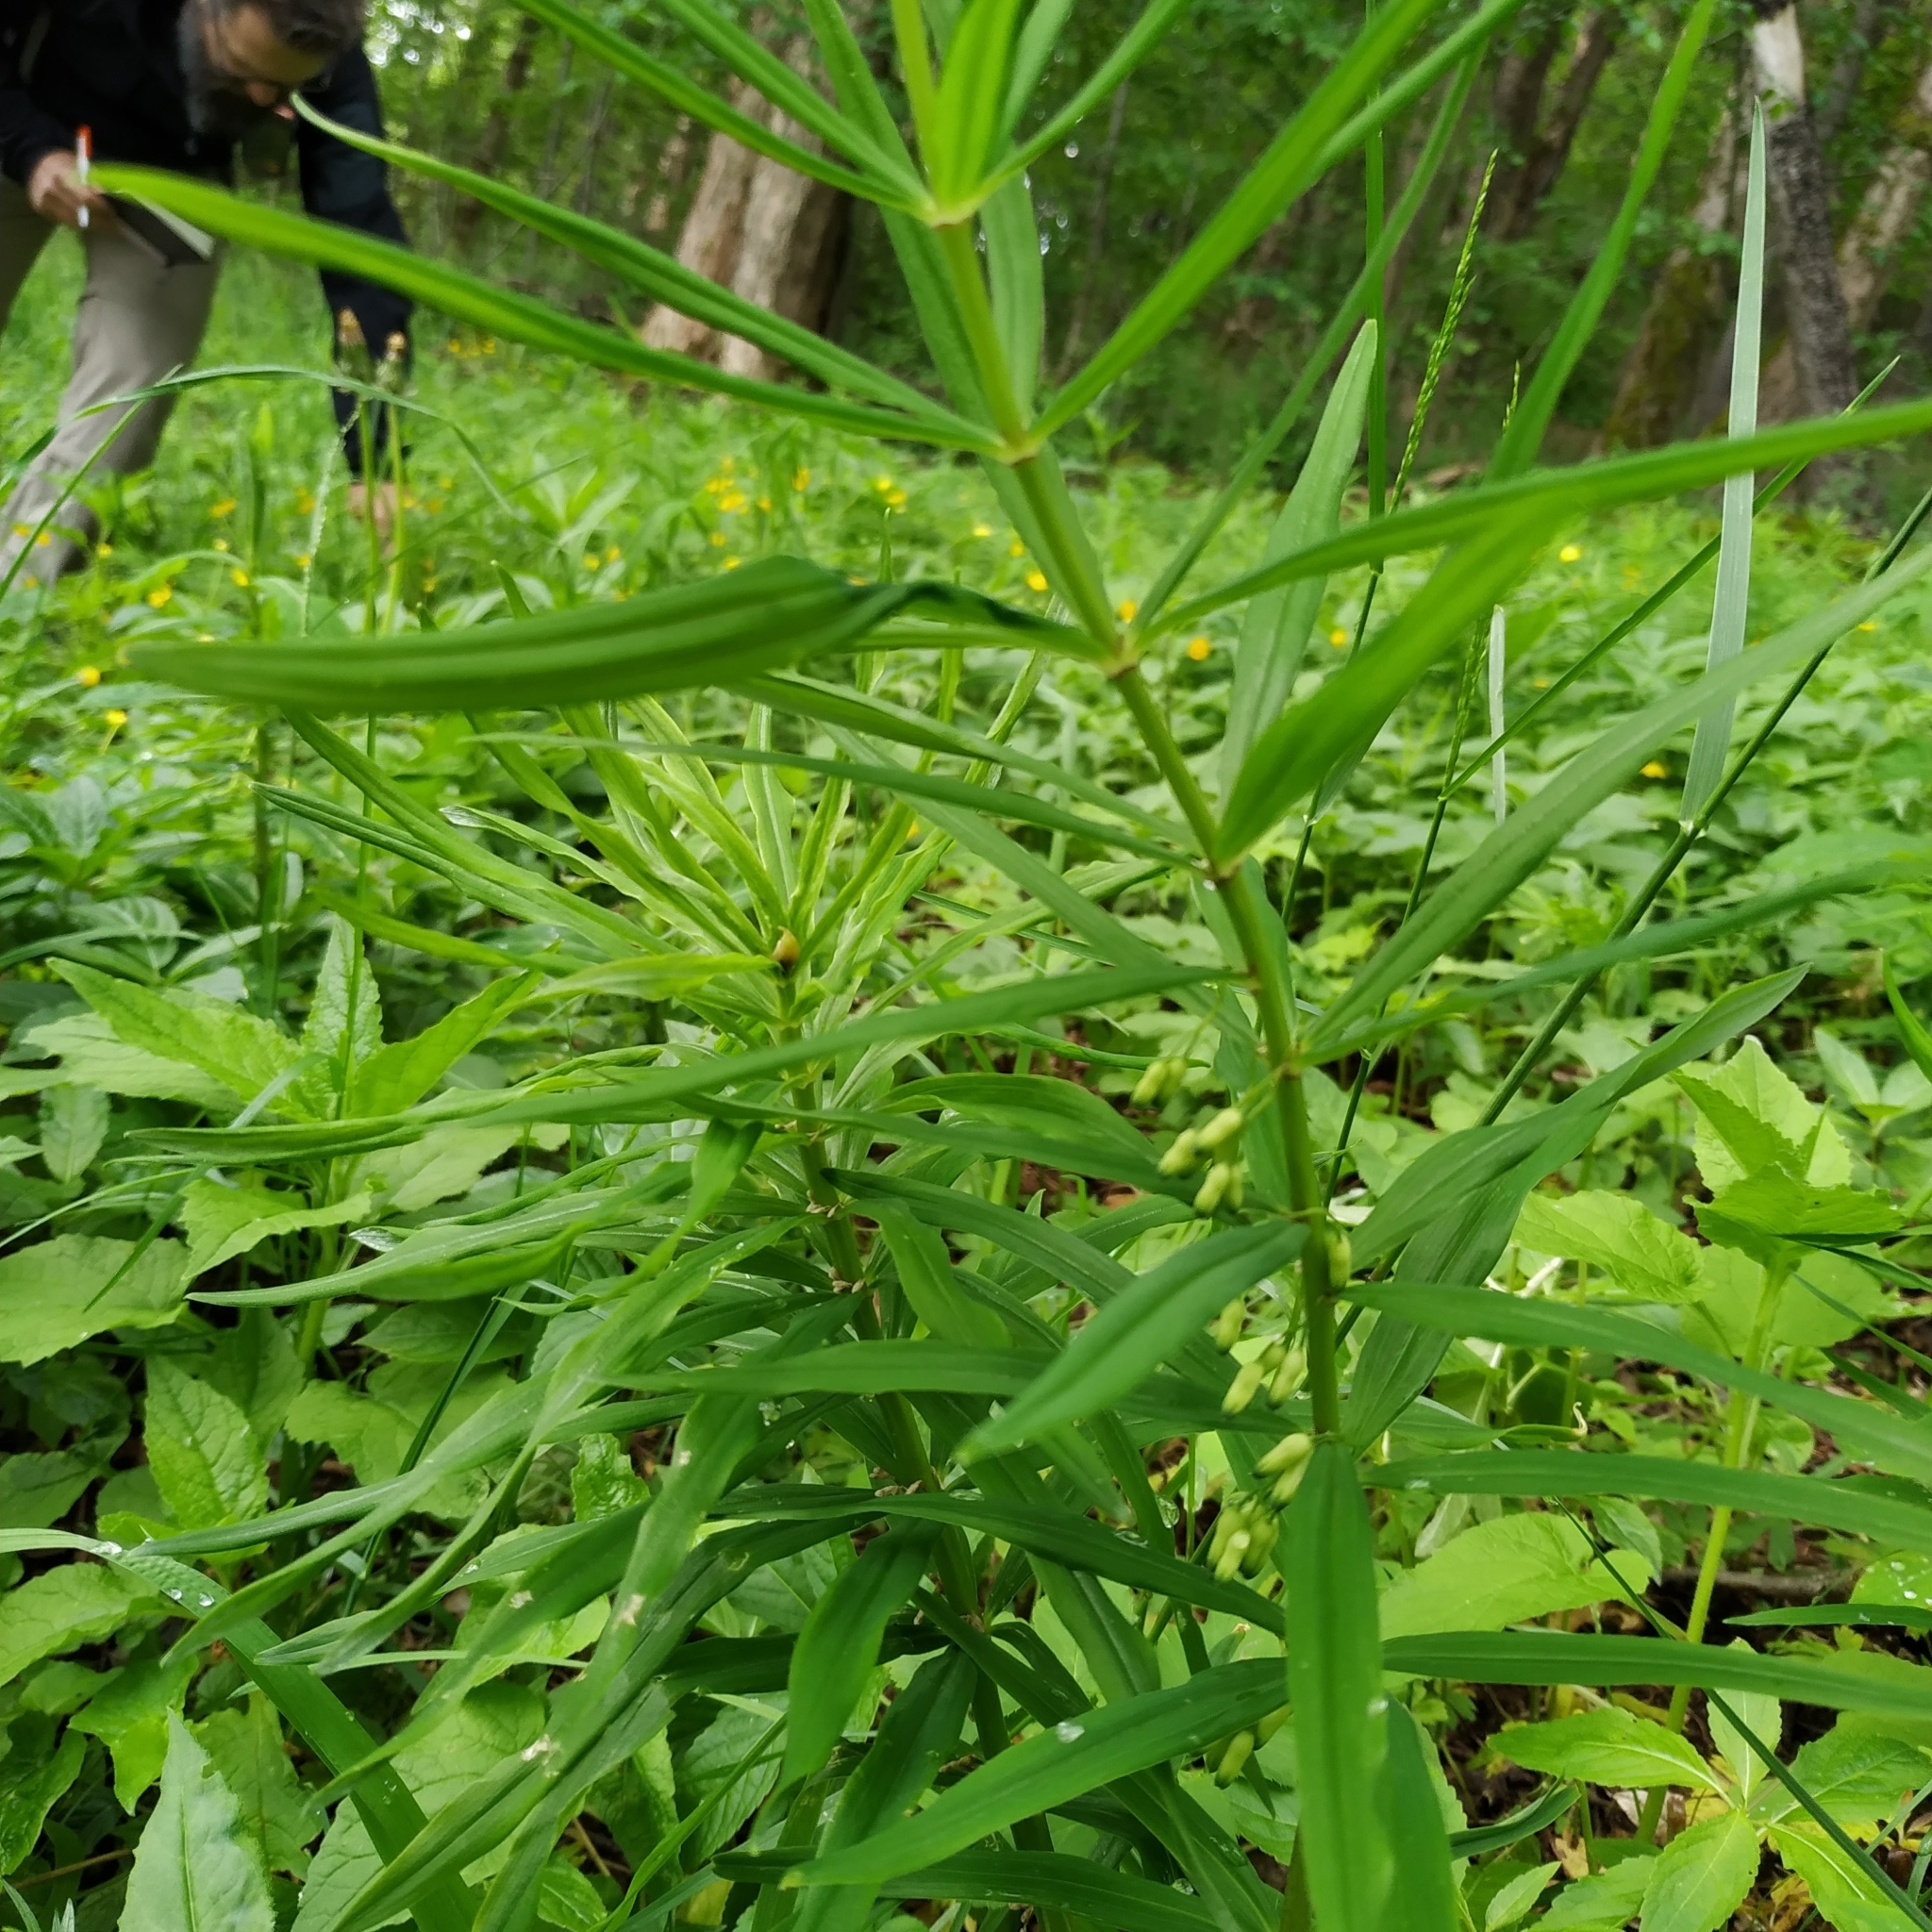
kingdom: Plantae
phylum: Tracheophyta
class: Liliopsida
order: Asparagales
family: Asparagaceae
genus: Polygonatum
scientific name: Polygonatum verticillatum
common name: Whorled solomon's-seal
